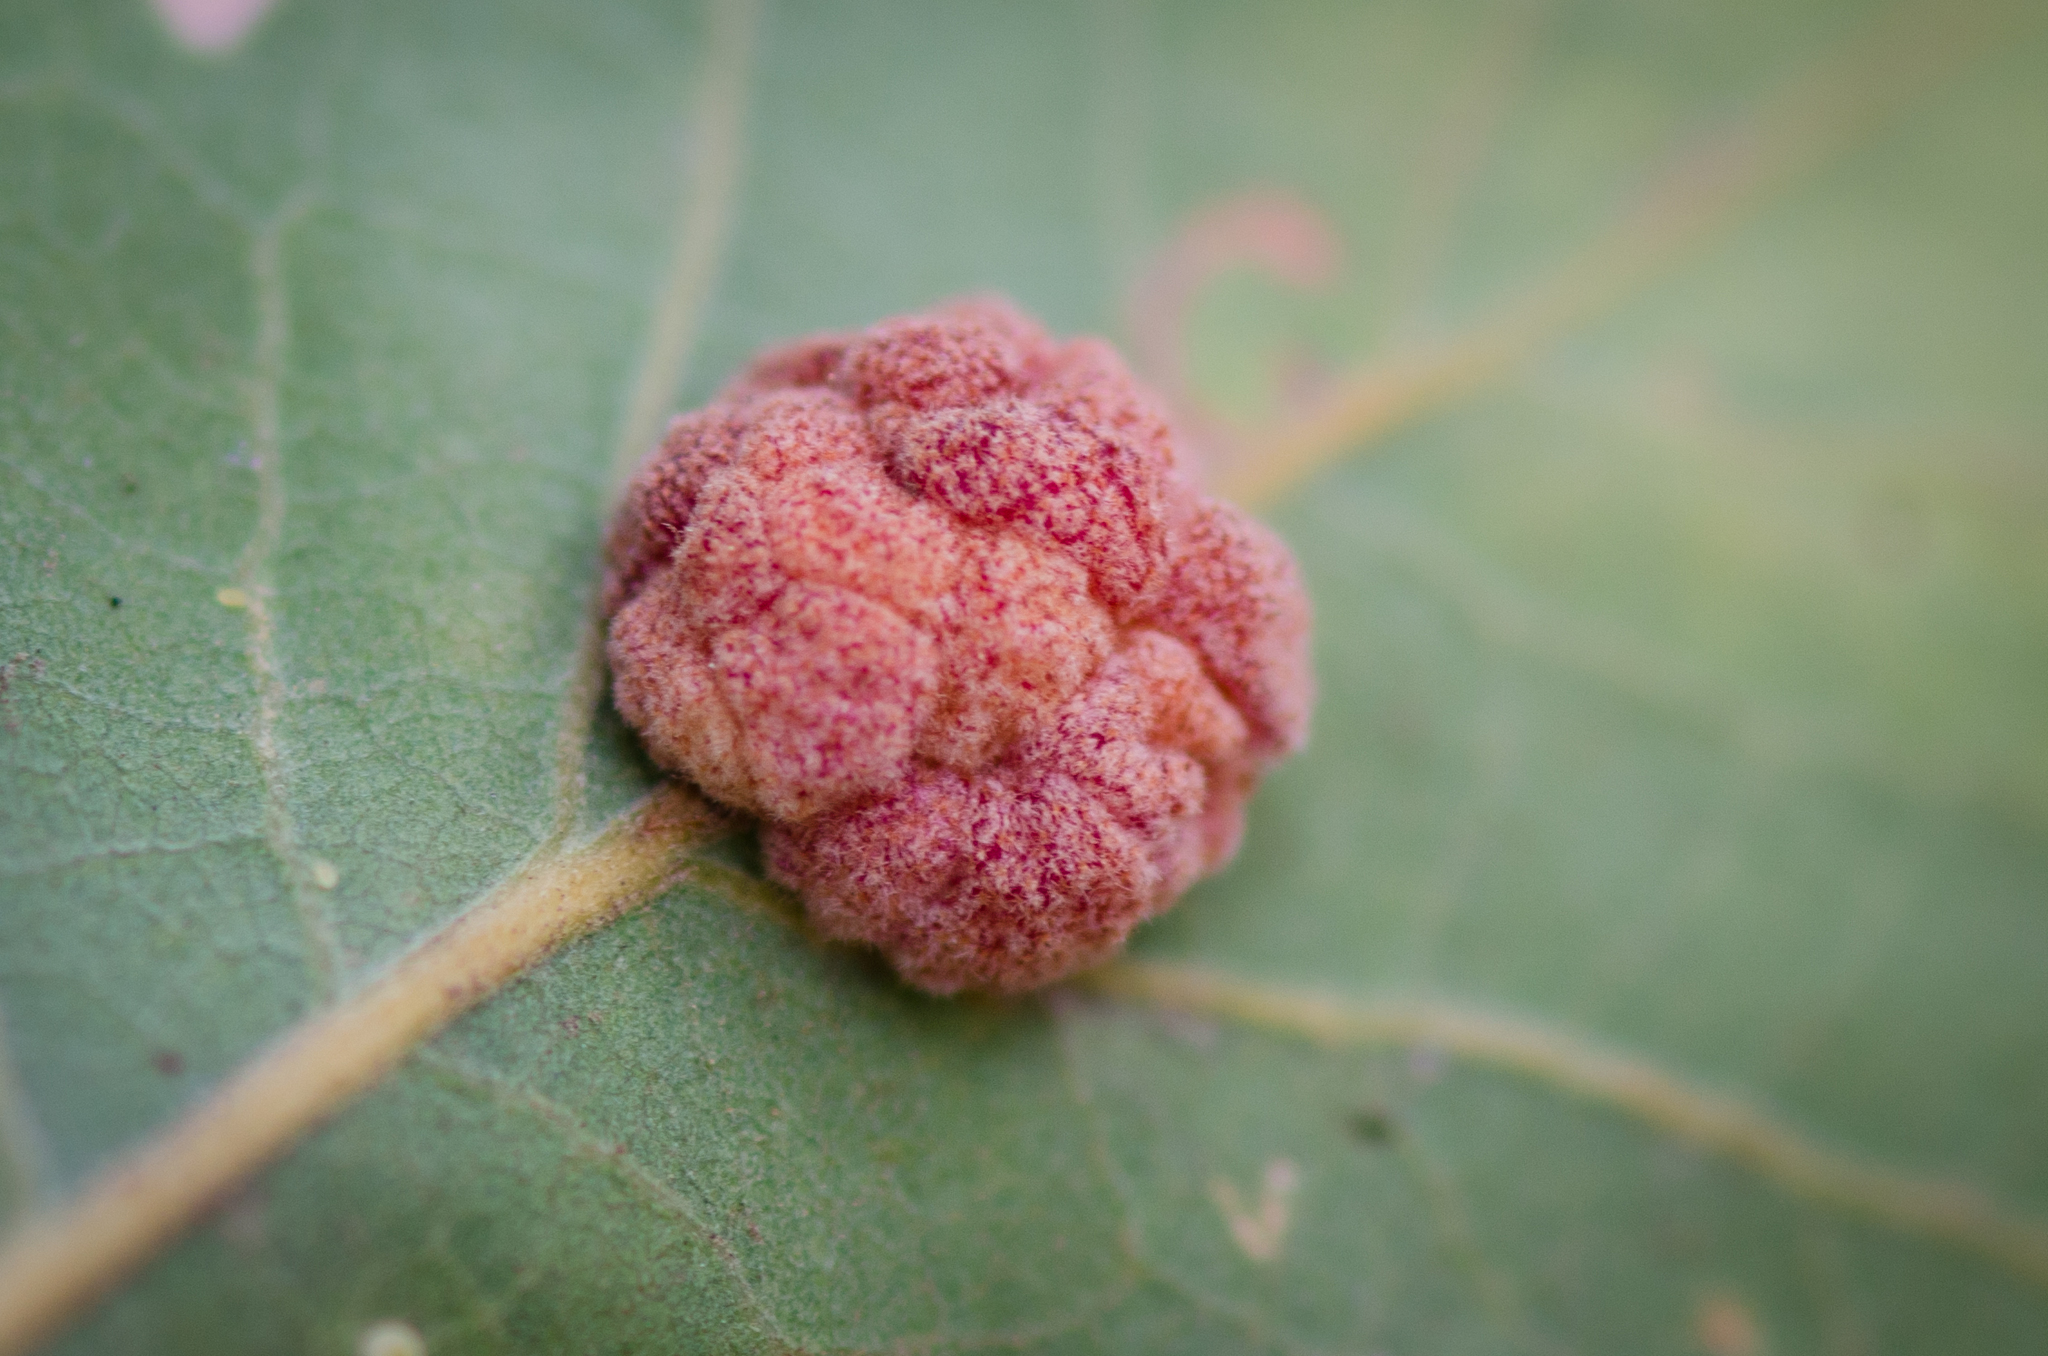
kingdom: Animalia
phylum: Arthropoda
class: Insecta
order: Hymenoptera
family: Cynipidae
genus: Andricus
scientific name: Andricus
